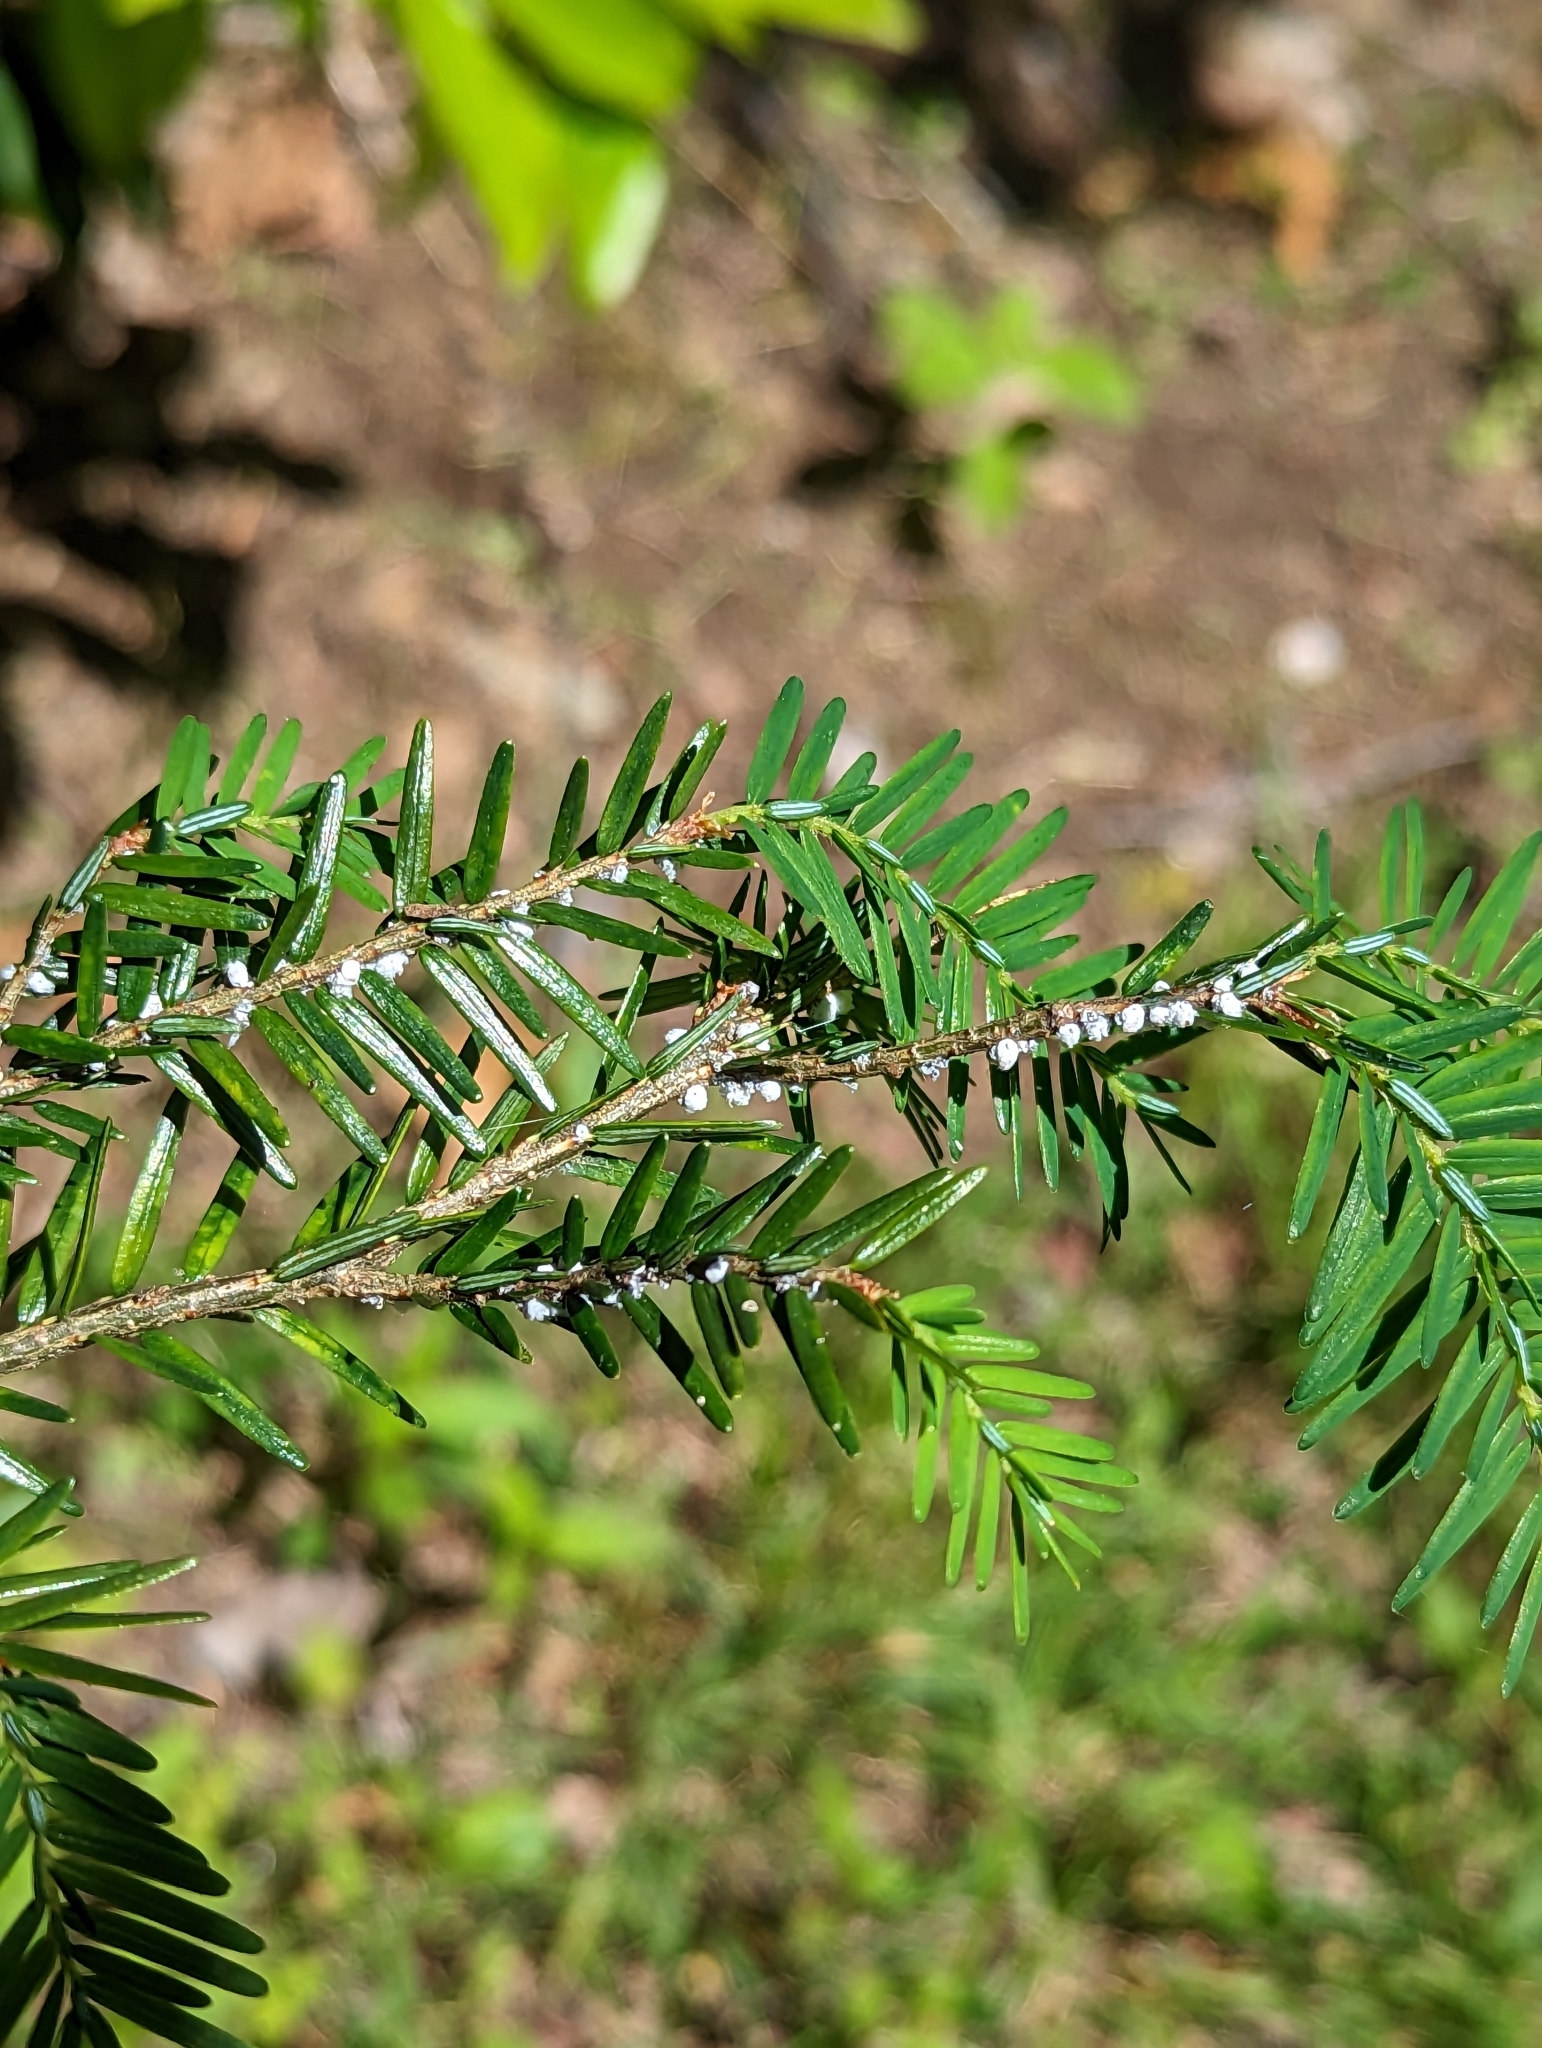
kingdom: Animalia
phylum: Arthropoda
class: Insecta
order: Hemiptera
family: Adelgidae
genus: Adelges
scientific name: Adelges tsugae
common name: Hemlock woolly adelgid
